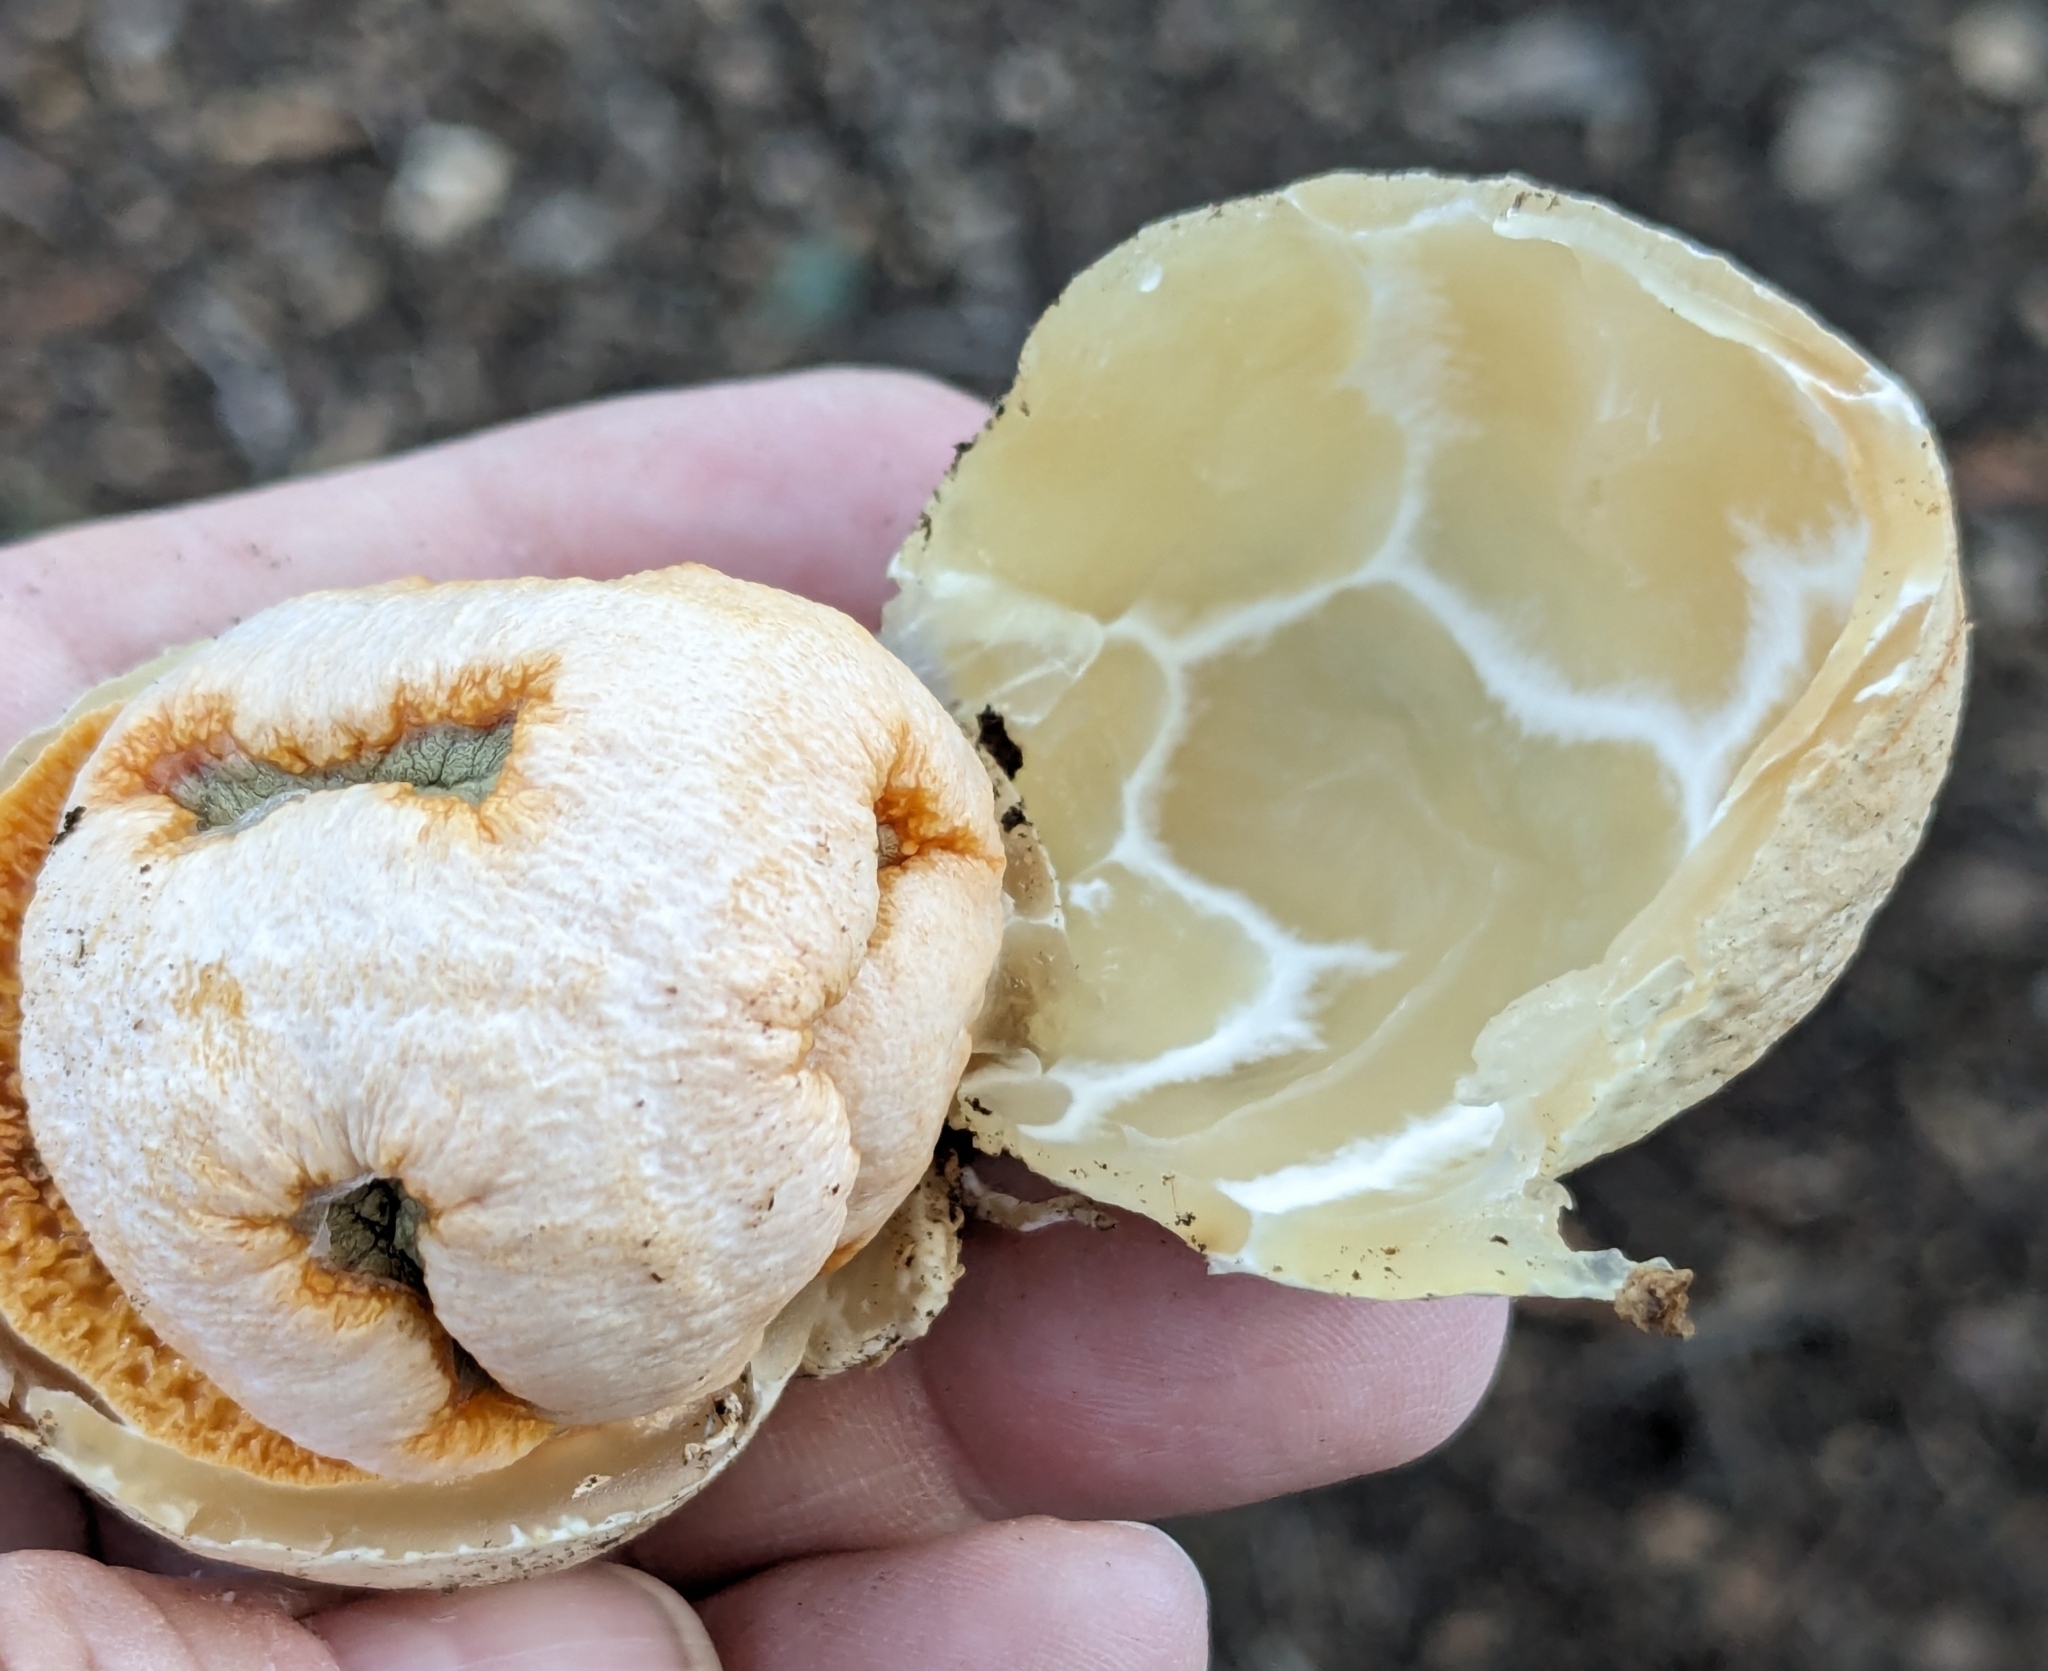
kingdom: Fungi
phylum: Basidiomycota
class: Agaricomycetes
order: Phallales
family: Phallaceae
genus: Clathrus
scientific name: Clathrus ruber
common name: Red cage
